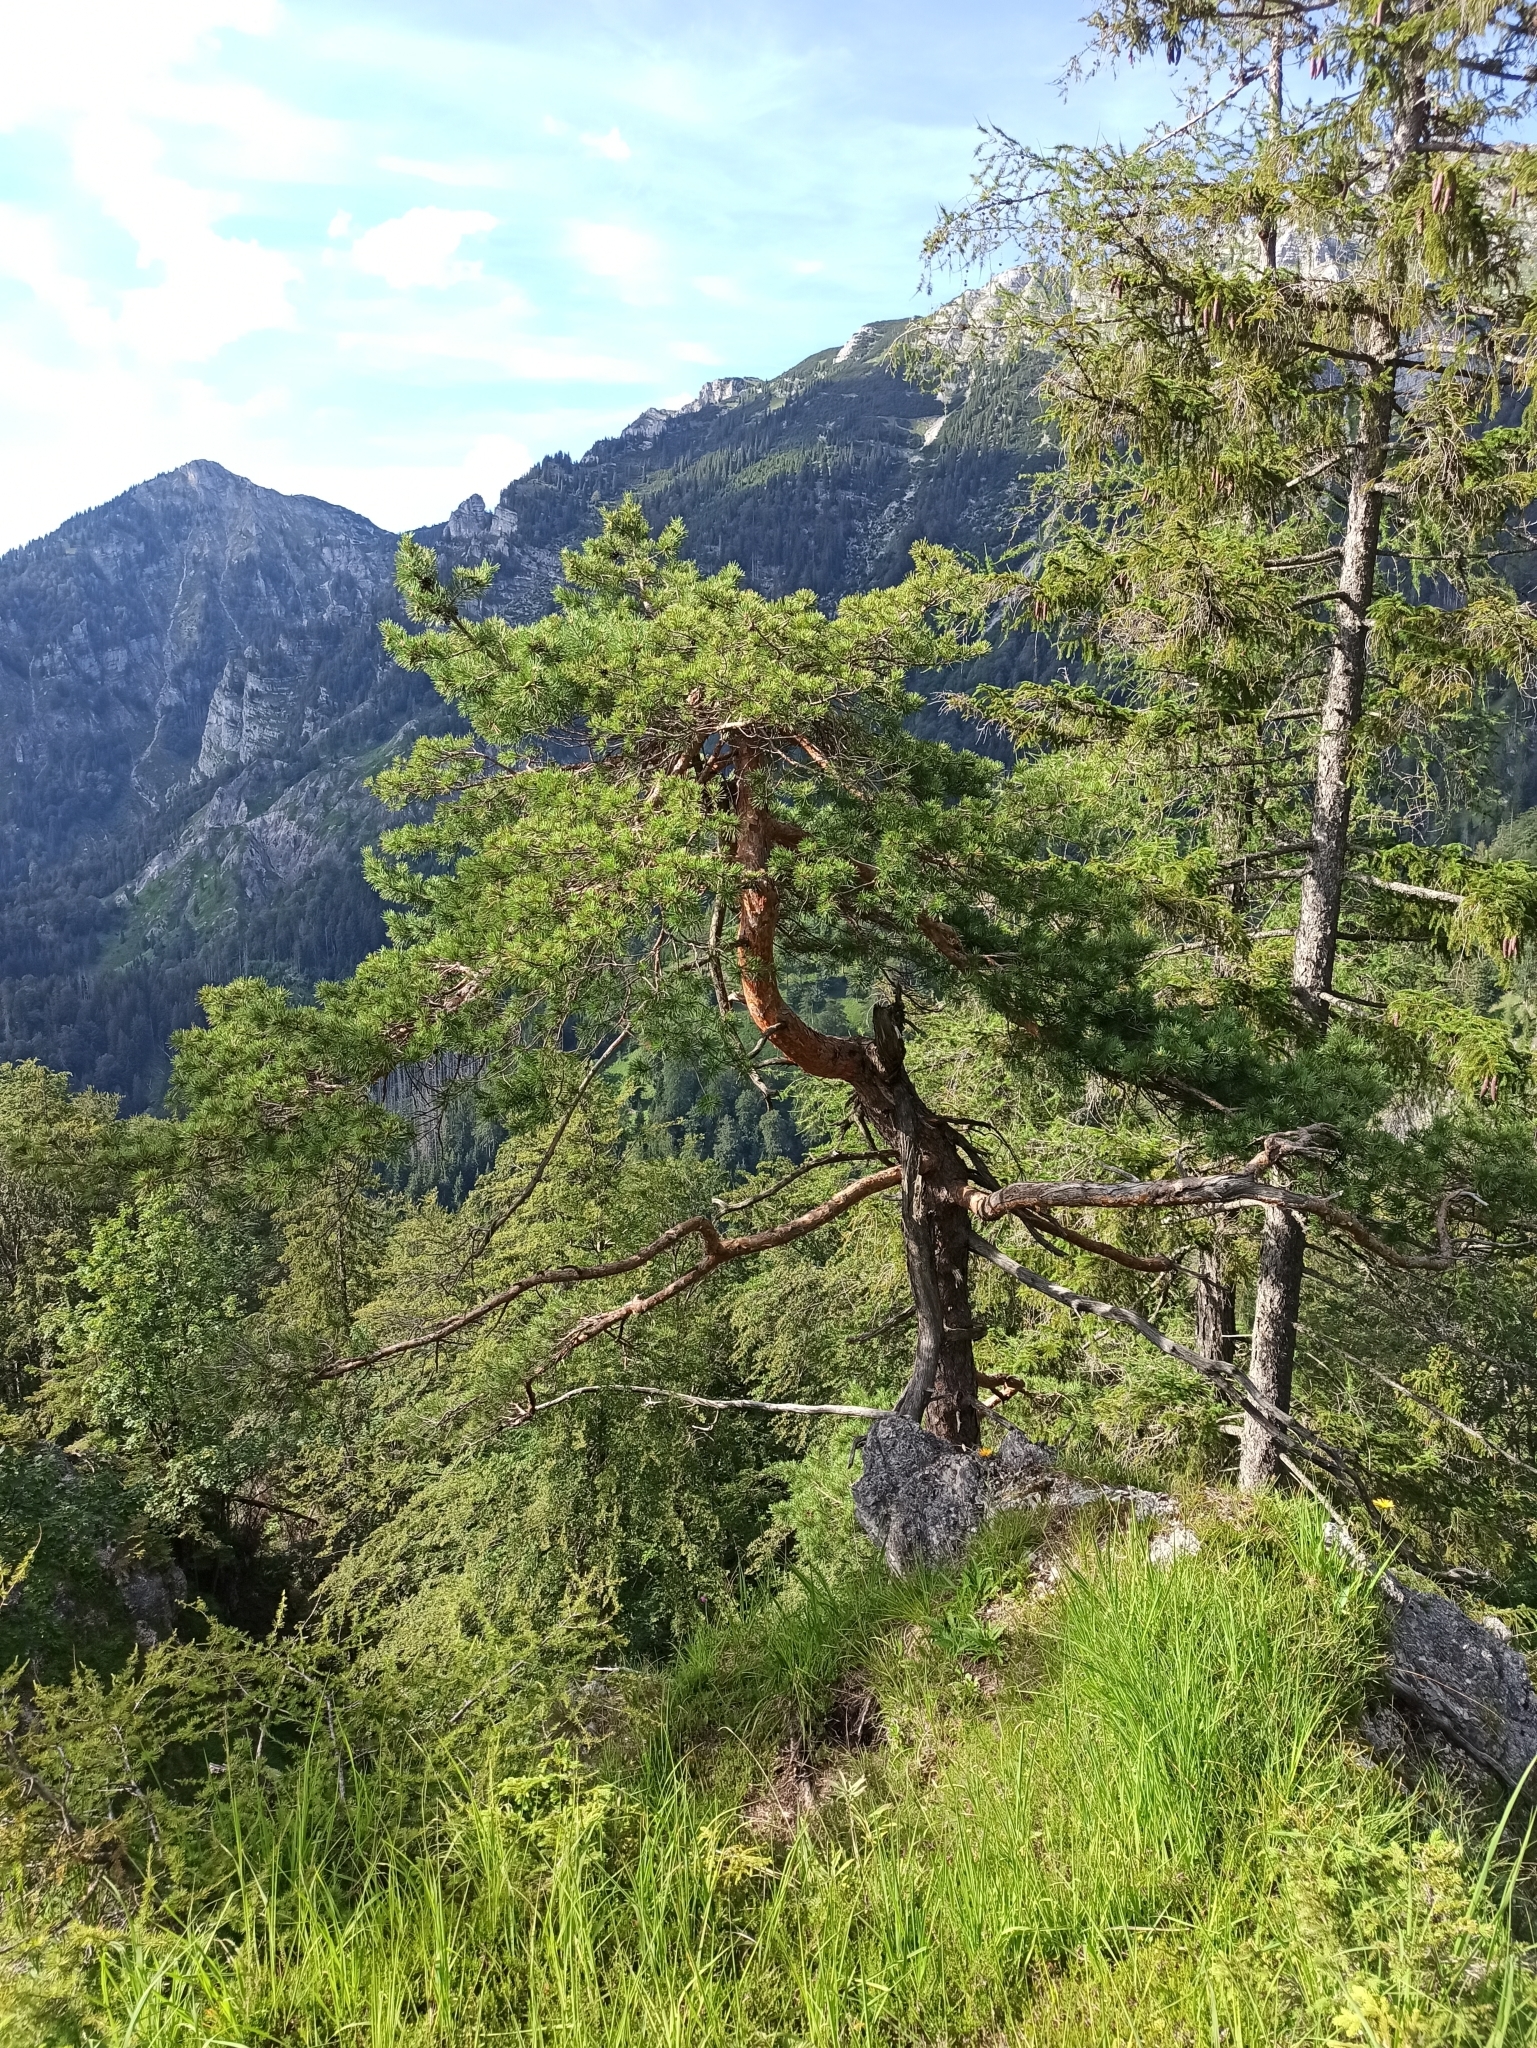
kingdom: Plantae
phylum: Tracheophyta
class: Pinopsida
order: Pinales
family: Pinaceae
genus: Pinus
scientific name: Pinus sylvestris
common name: Scots pine
